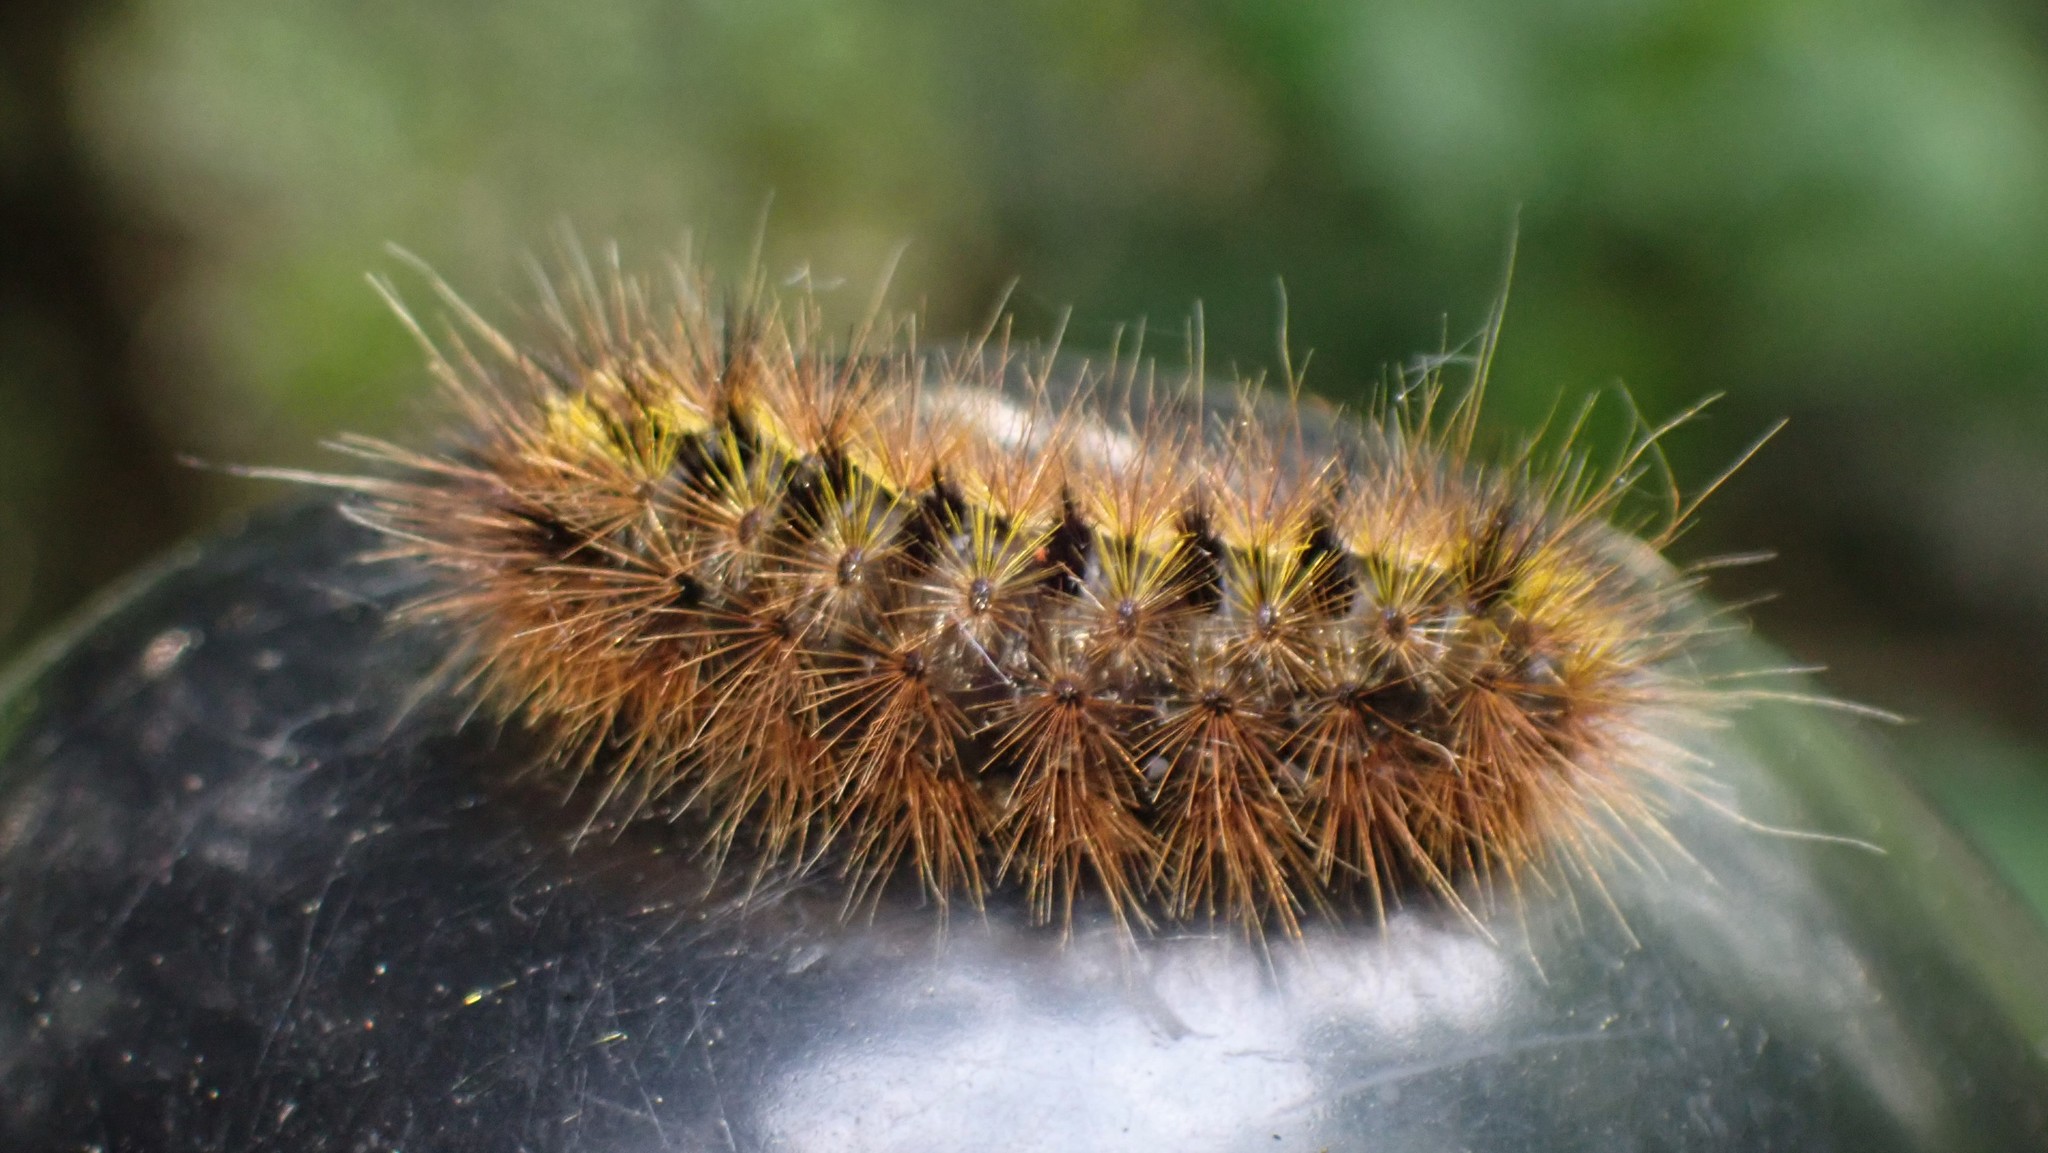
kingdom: Animalia
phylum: Arthropoda
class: Insecta
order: Lepidoptera
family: Erebidae
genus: Lophocampa
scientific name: Lophocampa argentata
